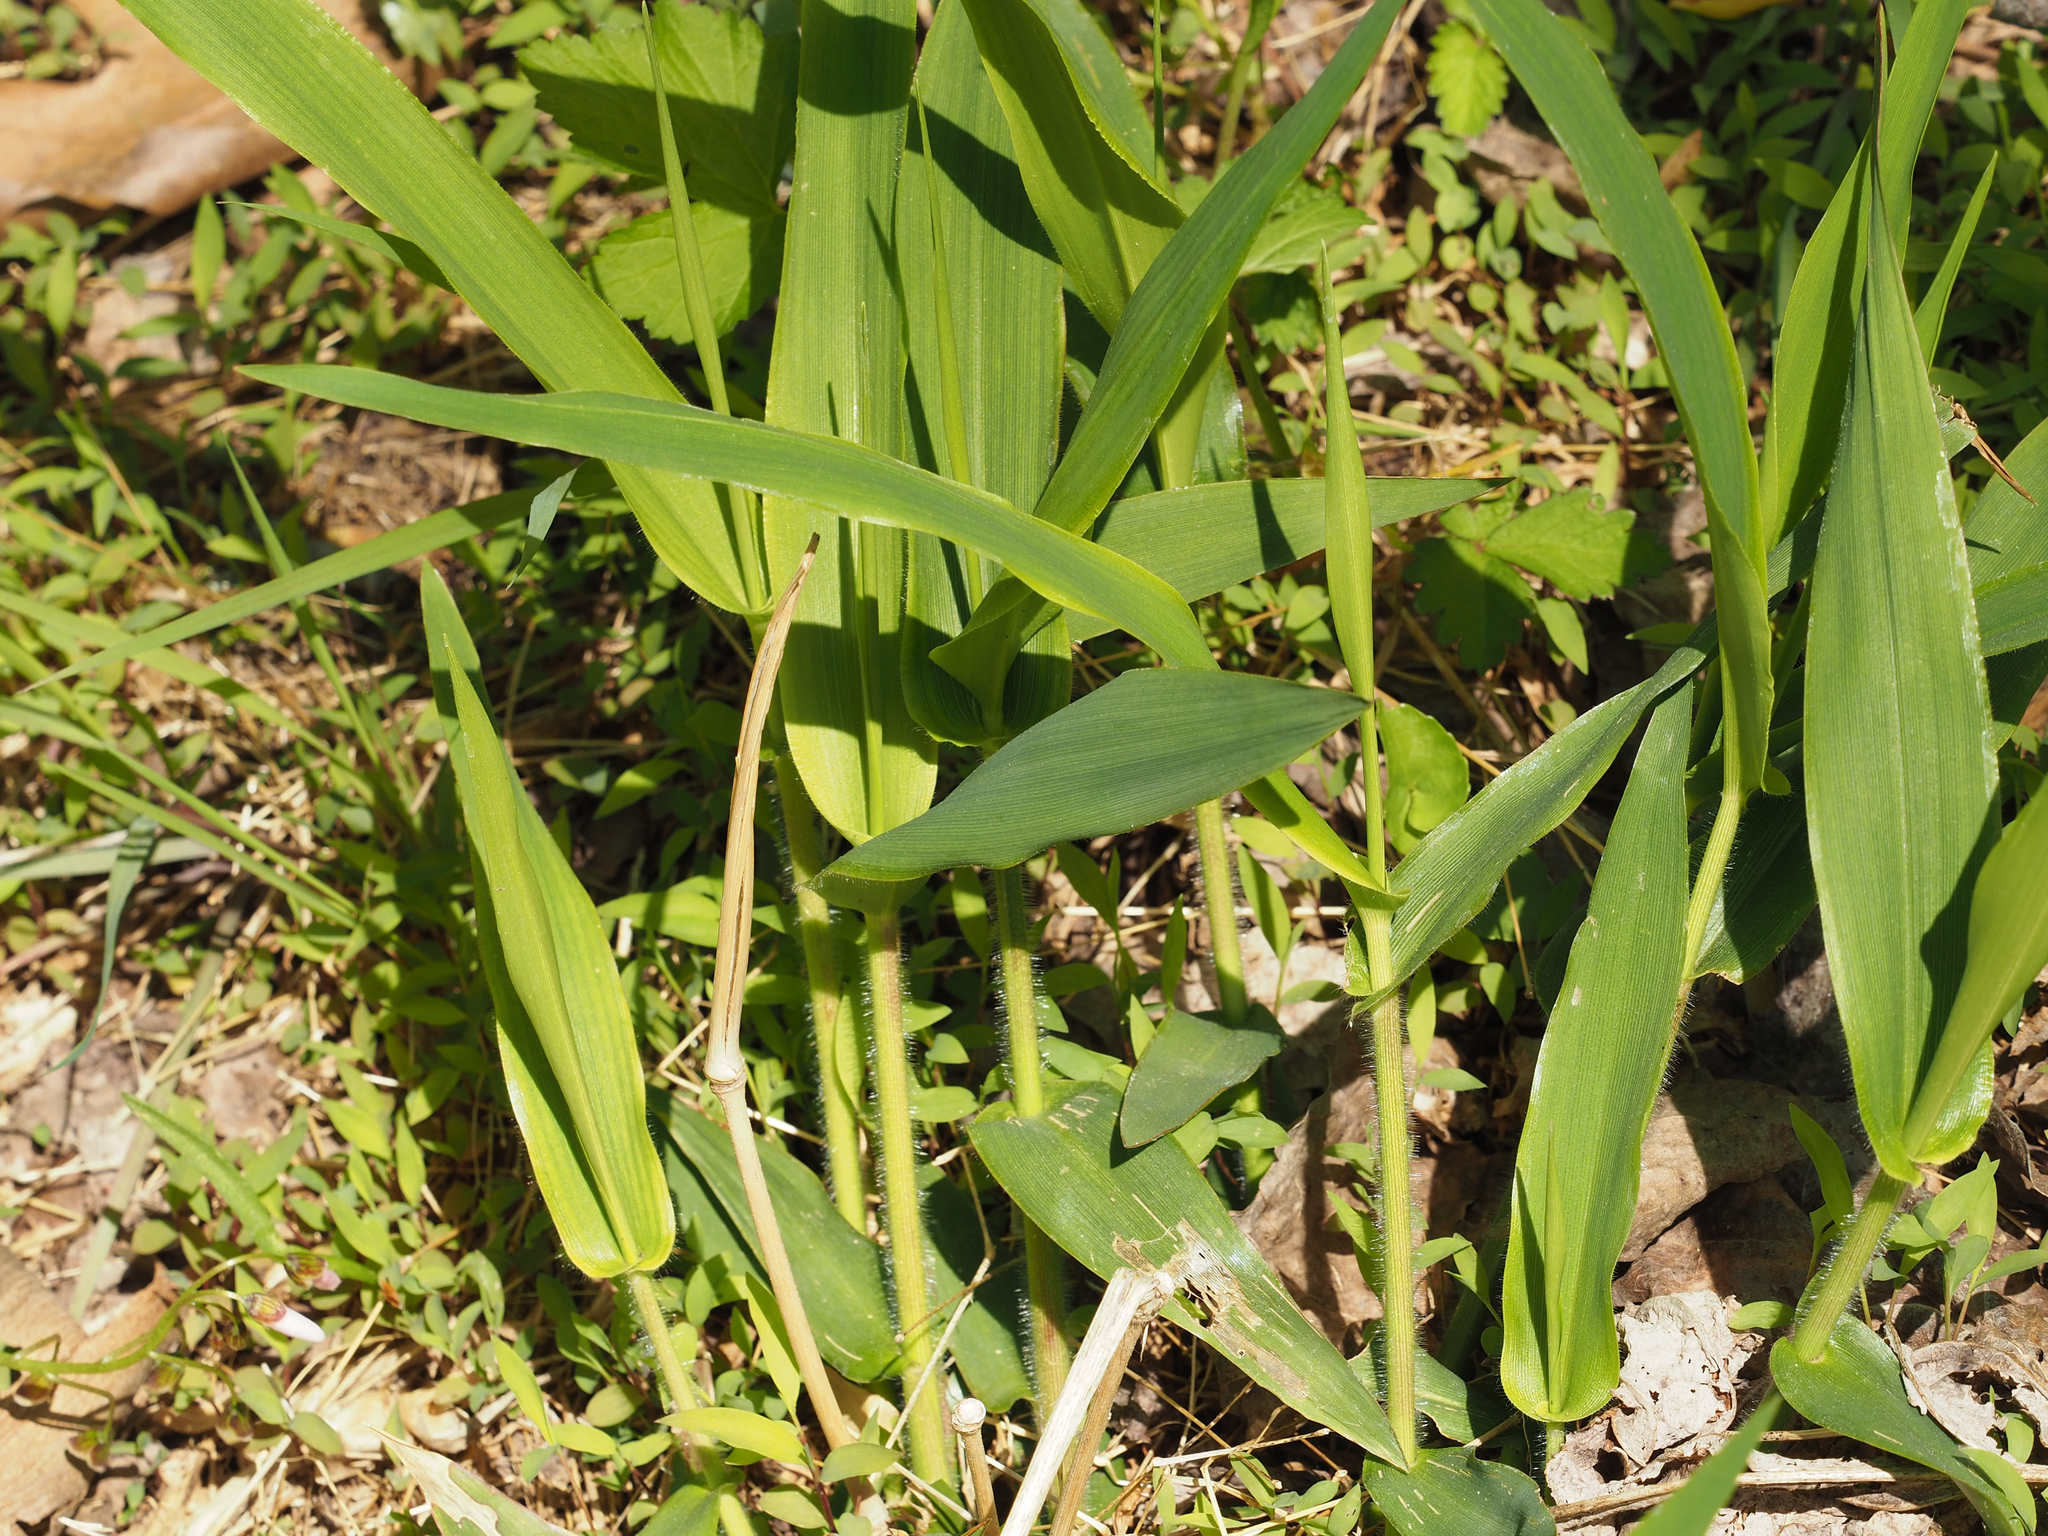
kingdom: Plantae
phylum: Tracheophyta
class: Liliopsida
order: Poales
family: Poaceae
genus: Dichanthelium
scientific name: Dichanthelium clandestinum
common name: Deer-tongue grass
